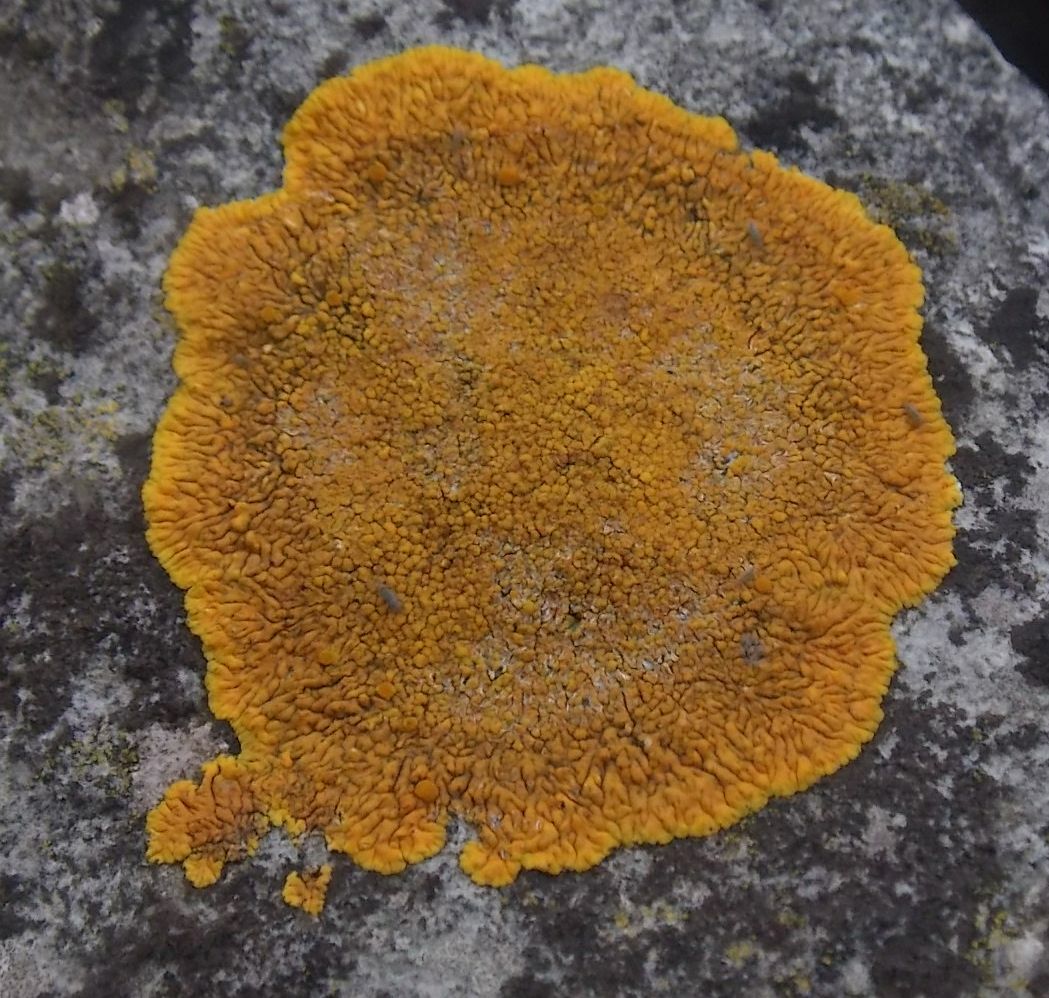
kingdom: Fungi
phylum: Ascomycota
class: Lecanoromycetes
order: Teloschistales
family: Teloschistaceae
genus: Variospora
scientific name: Variospora flavescens
